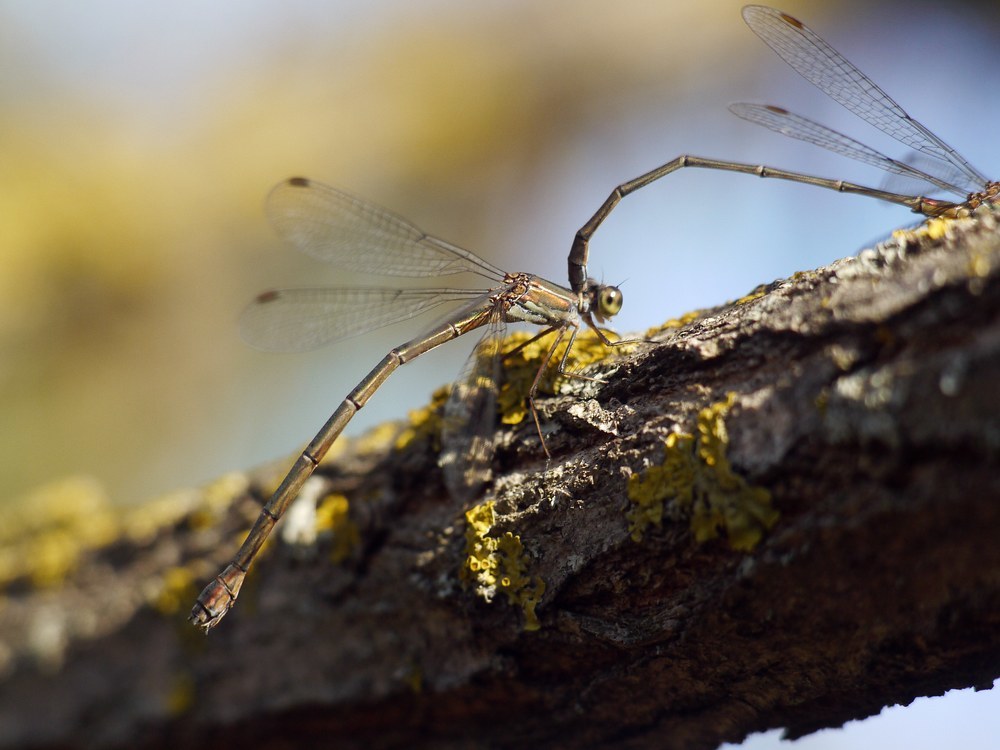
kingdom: Animalia
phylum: Arthropoda
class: Insecta
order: Odonata
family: Lestidae
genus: Chalcolestes
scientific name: Chalcolestes parvidens
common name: Eastern willow spreadwing
